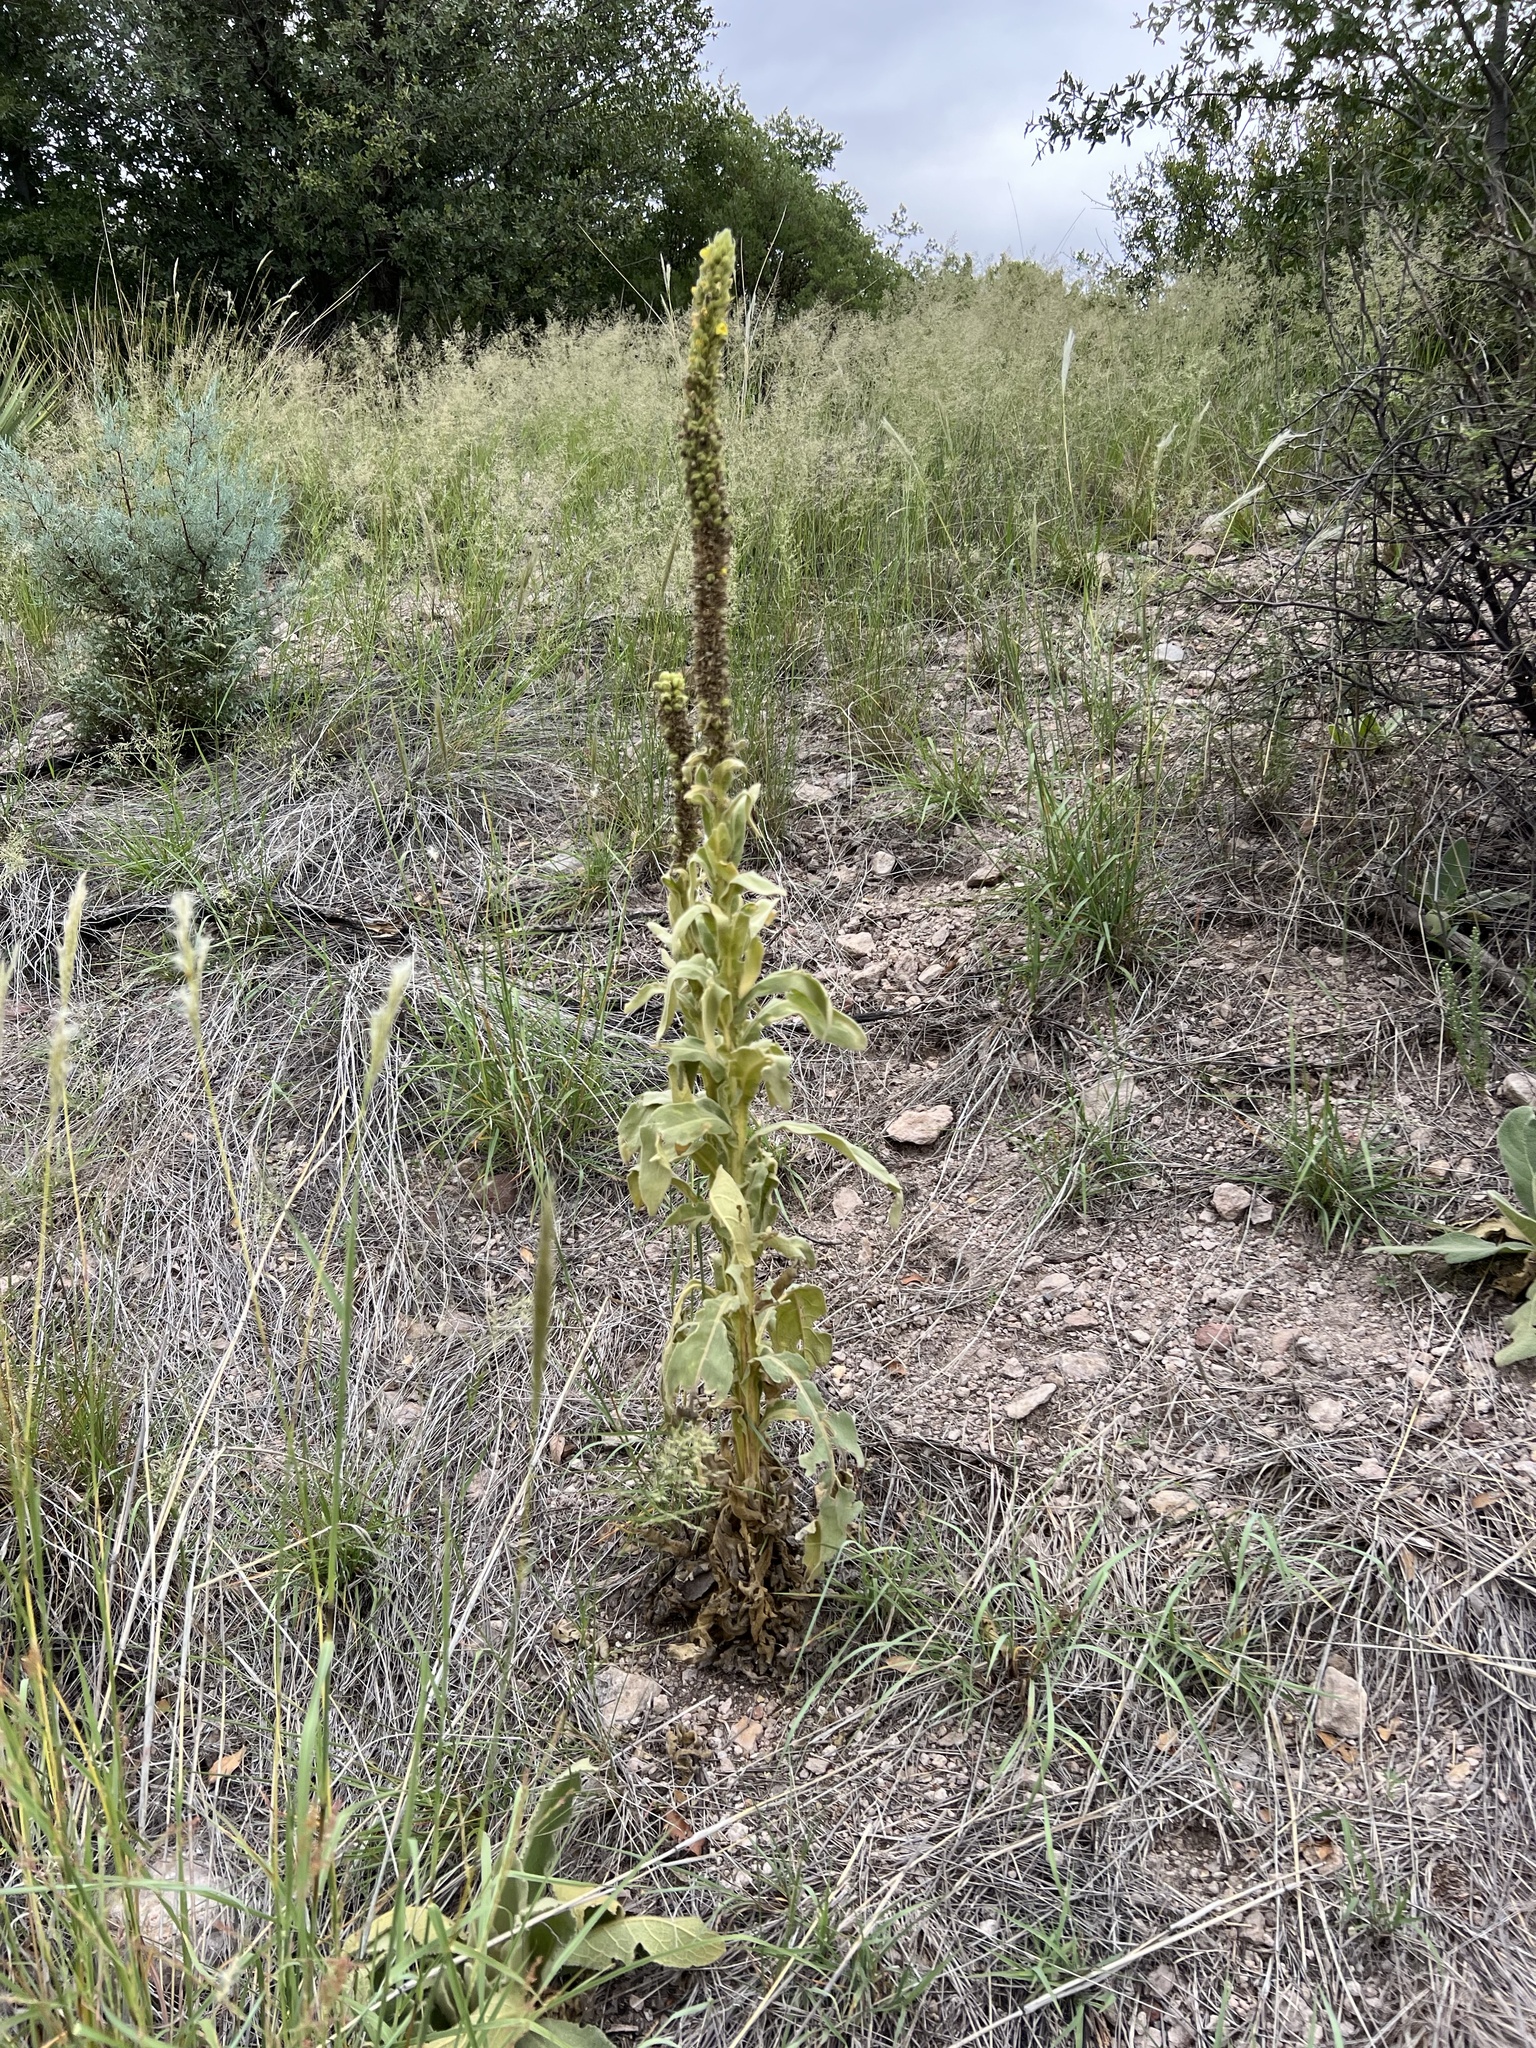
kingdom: Plantae
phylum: Tracheophyta
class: Magnoliopsida
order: Lamiales
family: Scrophulariaceae
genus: Verbascum
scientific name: Verbascum thapsus
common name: Common mullein
